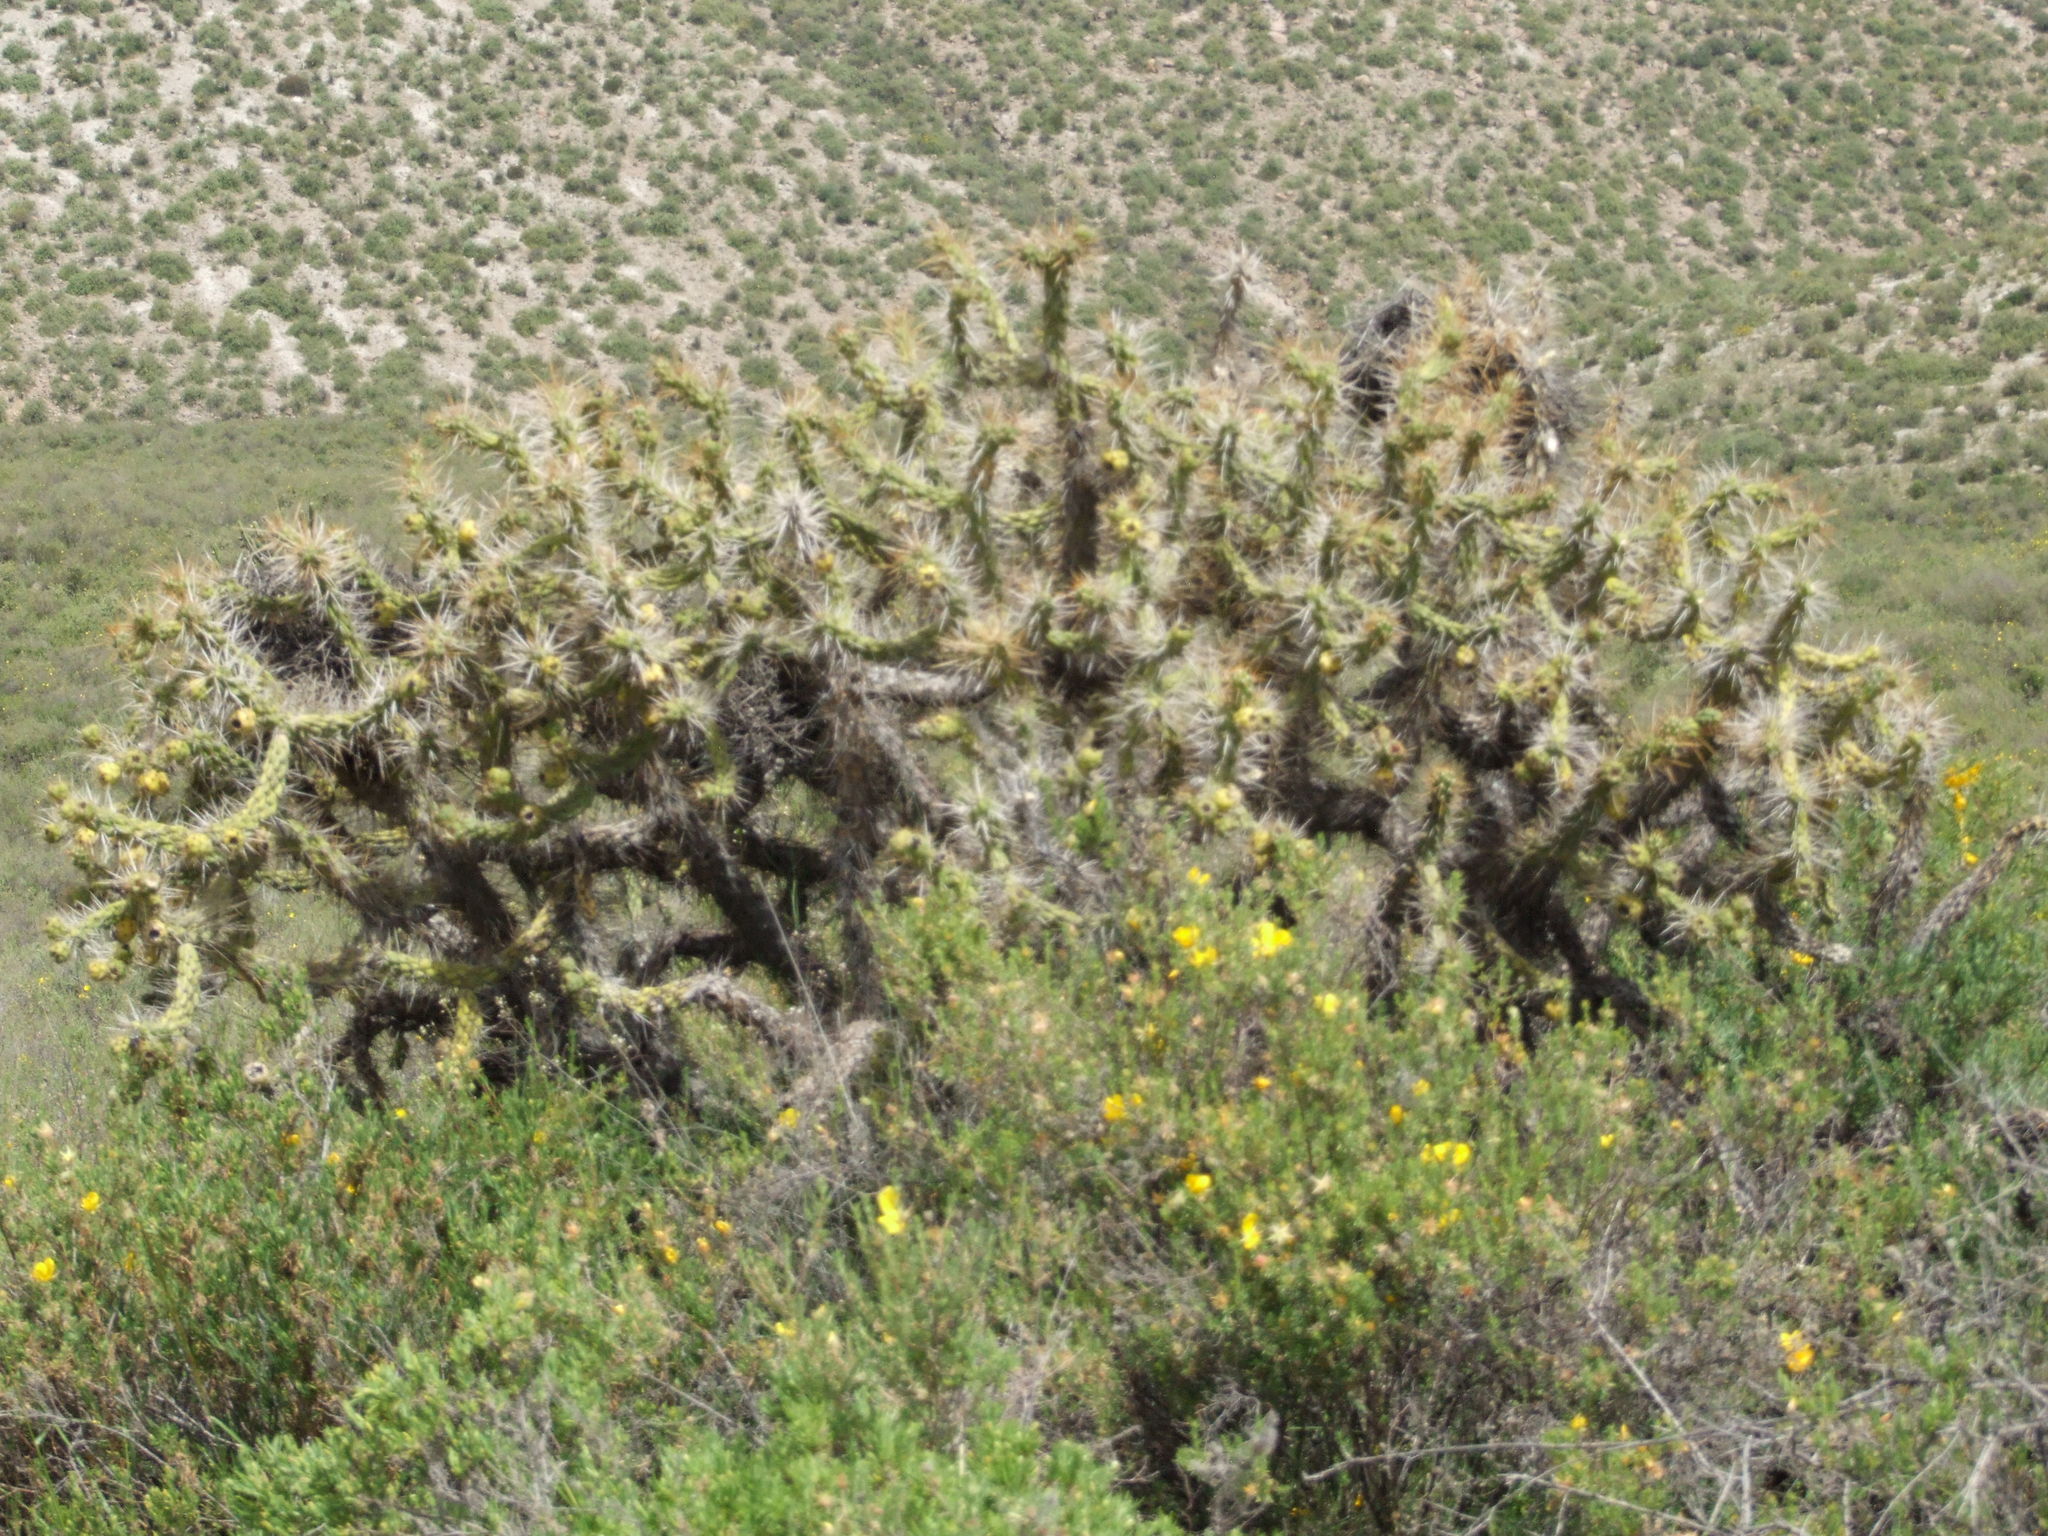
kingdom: Plantae
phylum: Tracheophyta
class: Magnoliopsida
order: Caryophyllales
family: Cactaceae
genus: Austrocylindropuntia
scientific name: Austrocylindropuntia subulata
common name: Eve's needle cactus
